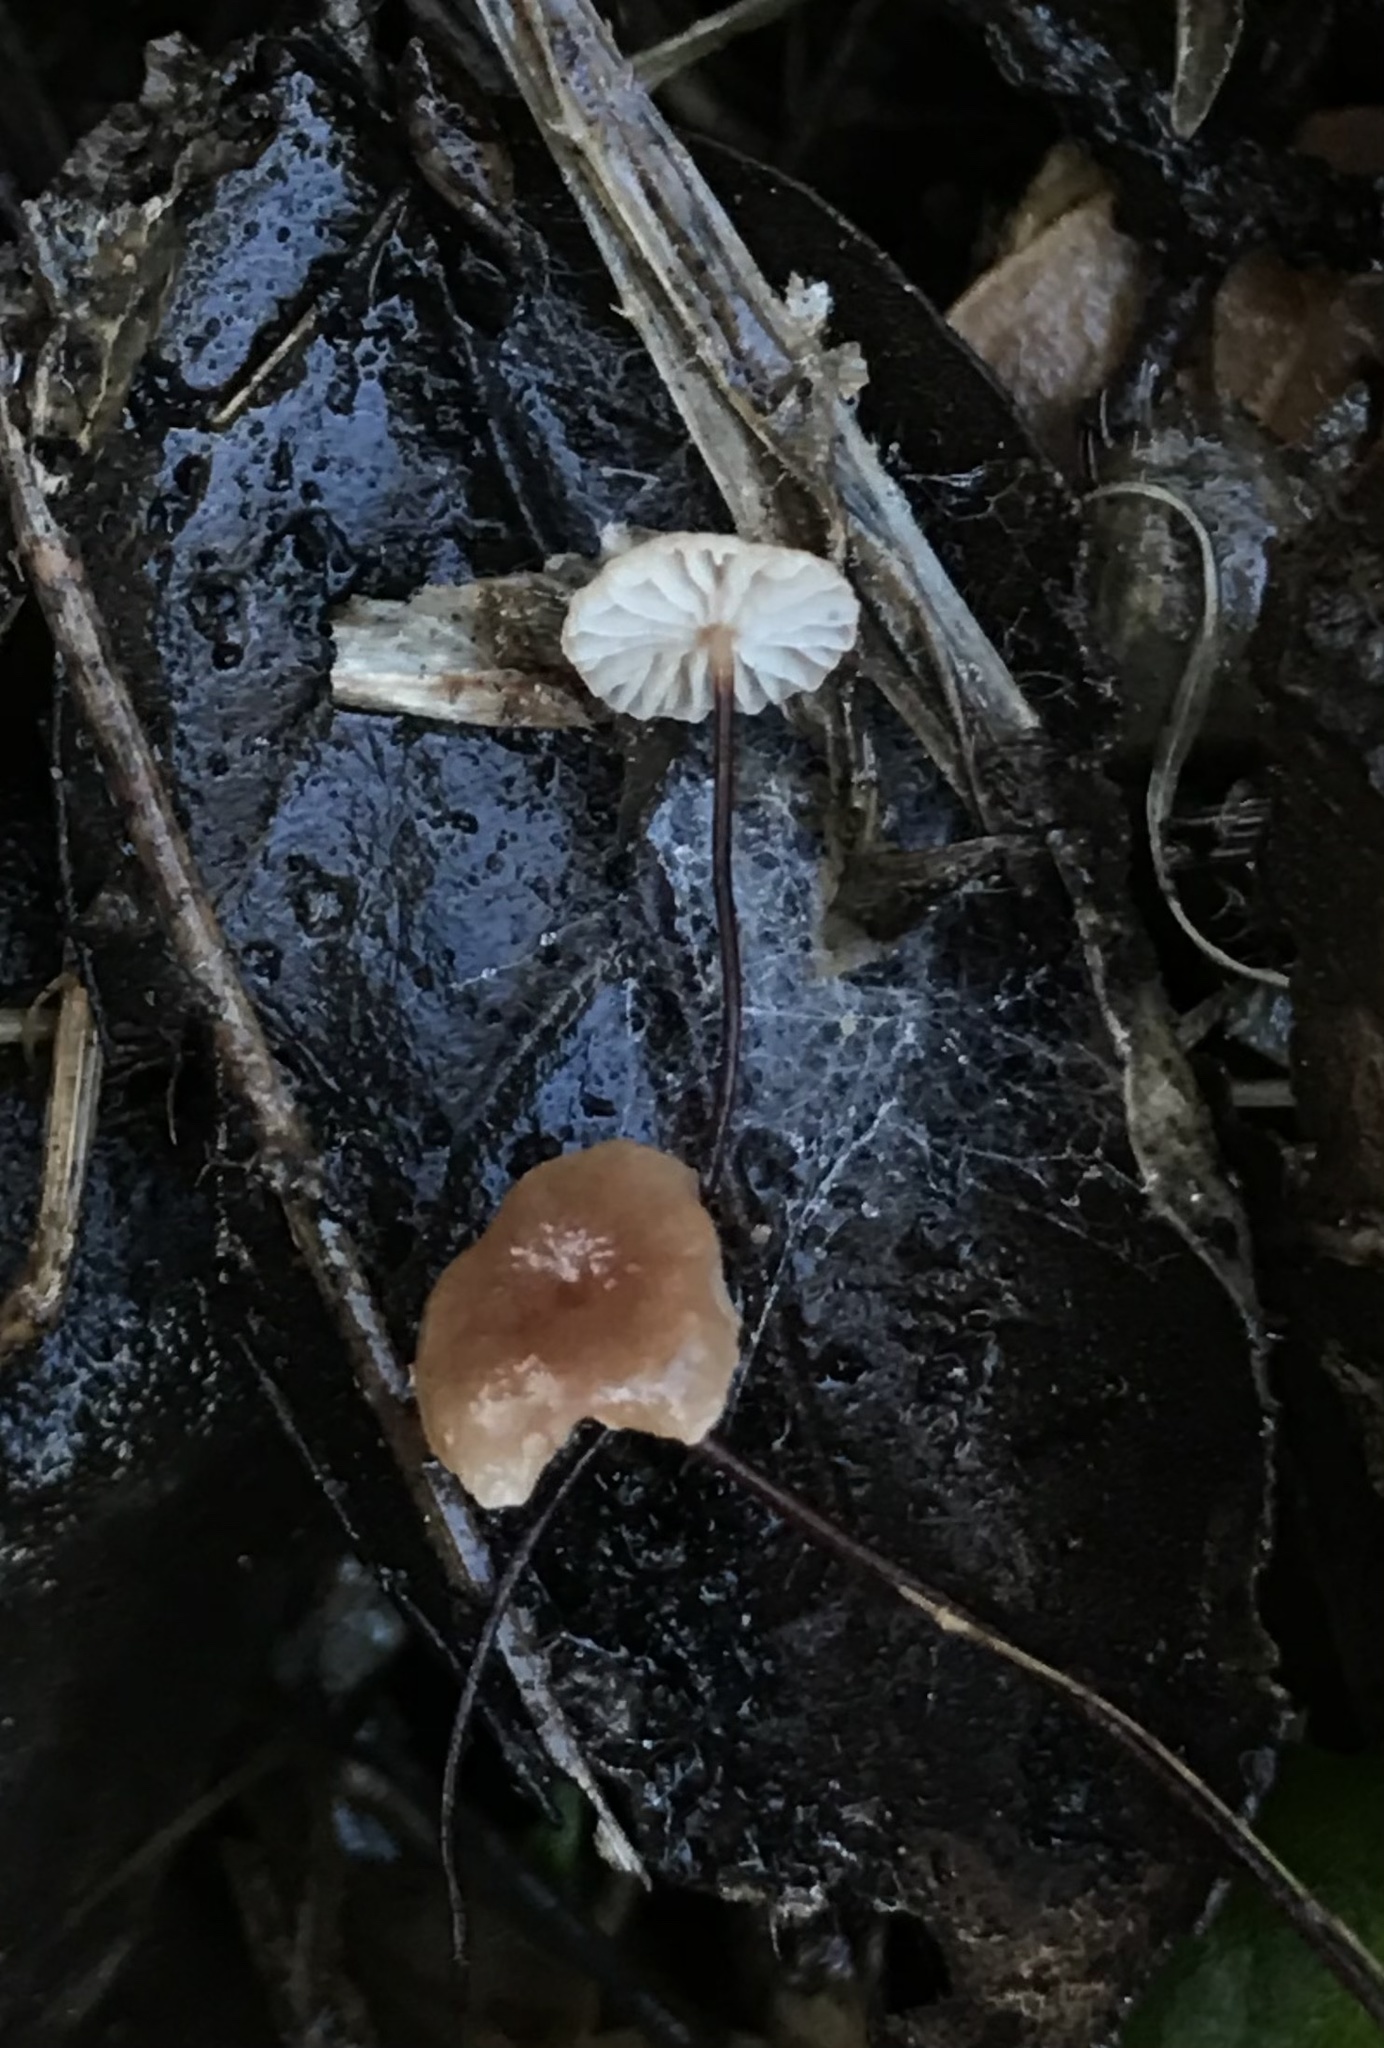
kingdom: Fungi
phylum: Basidiomycota
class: Agaricomycetes
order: Agaricales
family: Omphalotaceae
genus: Collybiopsis
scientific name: Collybiopsis quercophila
